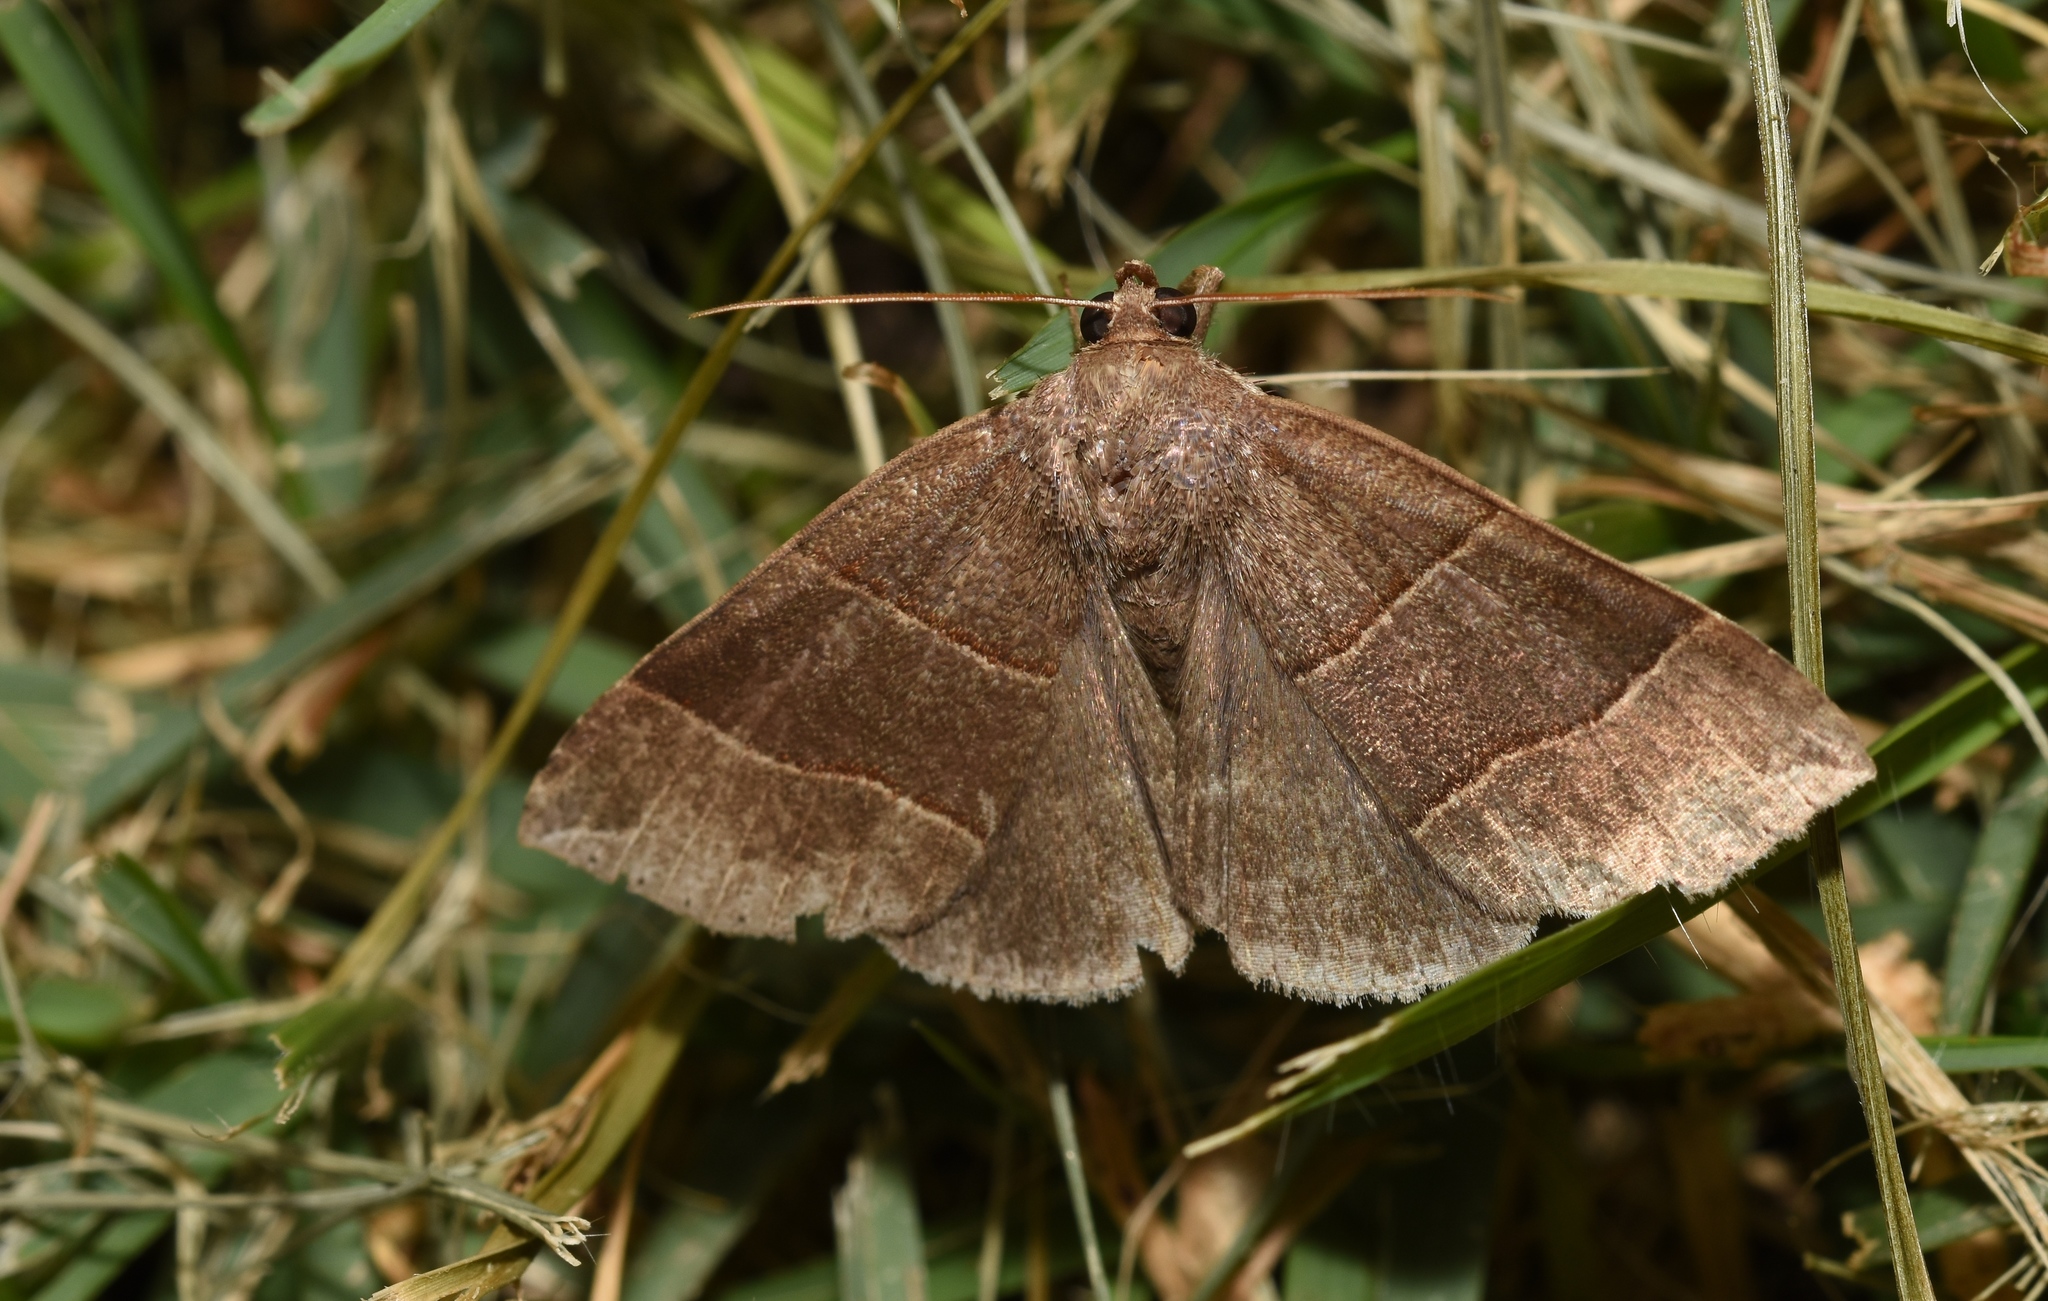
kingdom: Animalia
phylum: Arthropoda
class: Insecta
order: Lepidoptera
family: Erebidae
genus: Parallelia
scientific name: Parallelia bistriaris
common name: Maple looper moth
